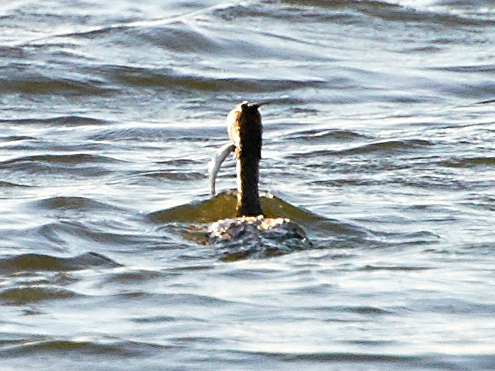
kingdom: Animalia
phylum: Chordata
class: Aves
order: Podicipediformes
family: Podicipedidae
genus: Podiceps
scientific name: Podiceps cristatus
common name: Great crested grebe
